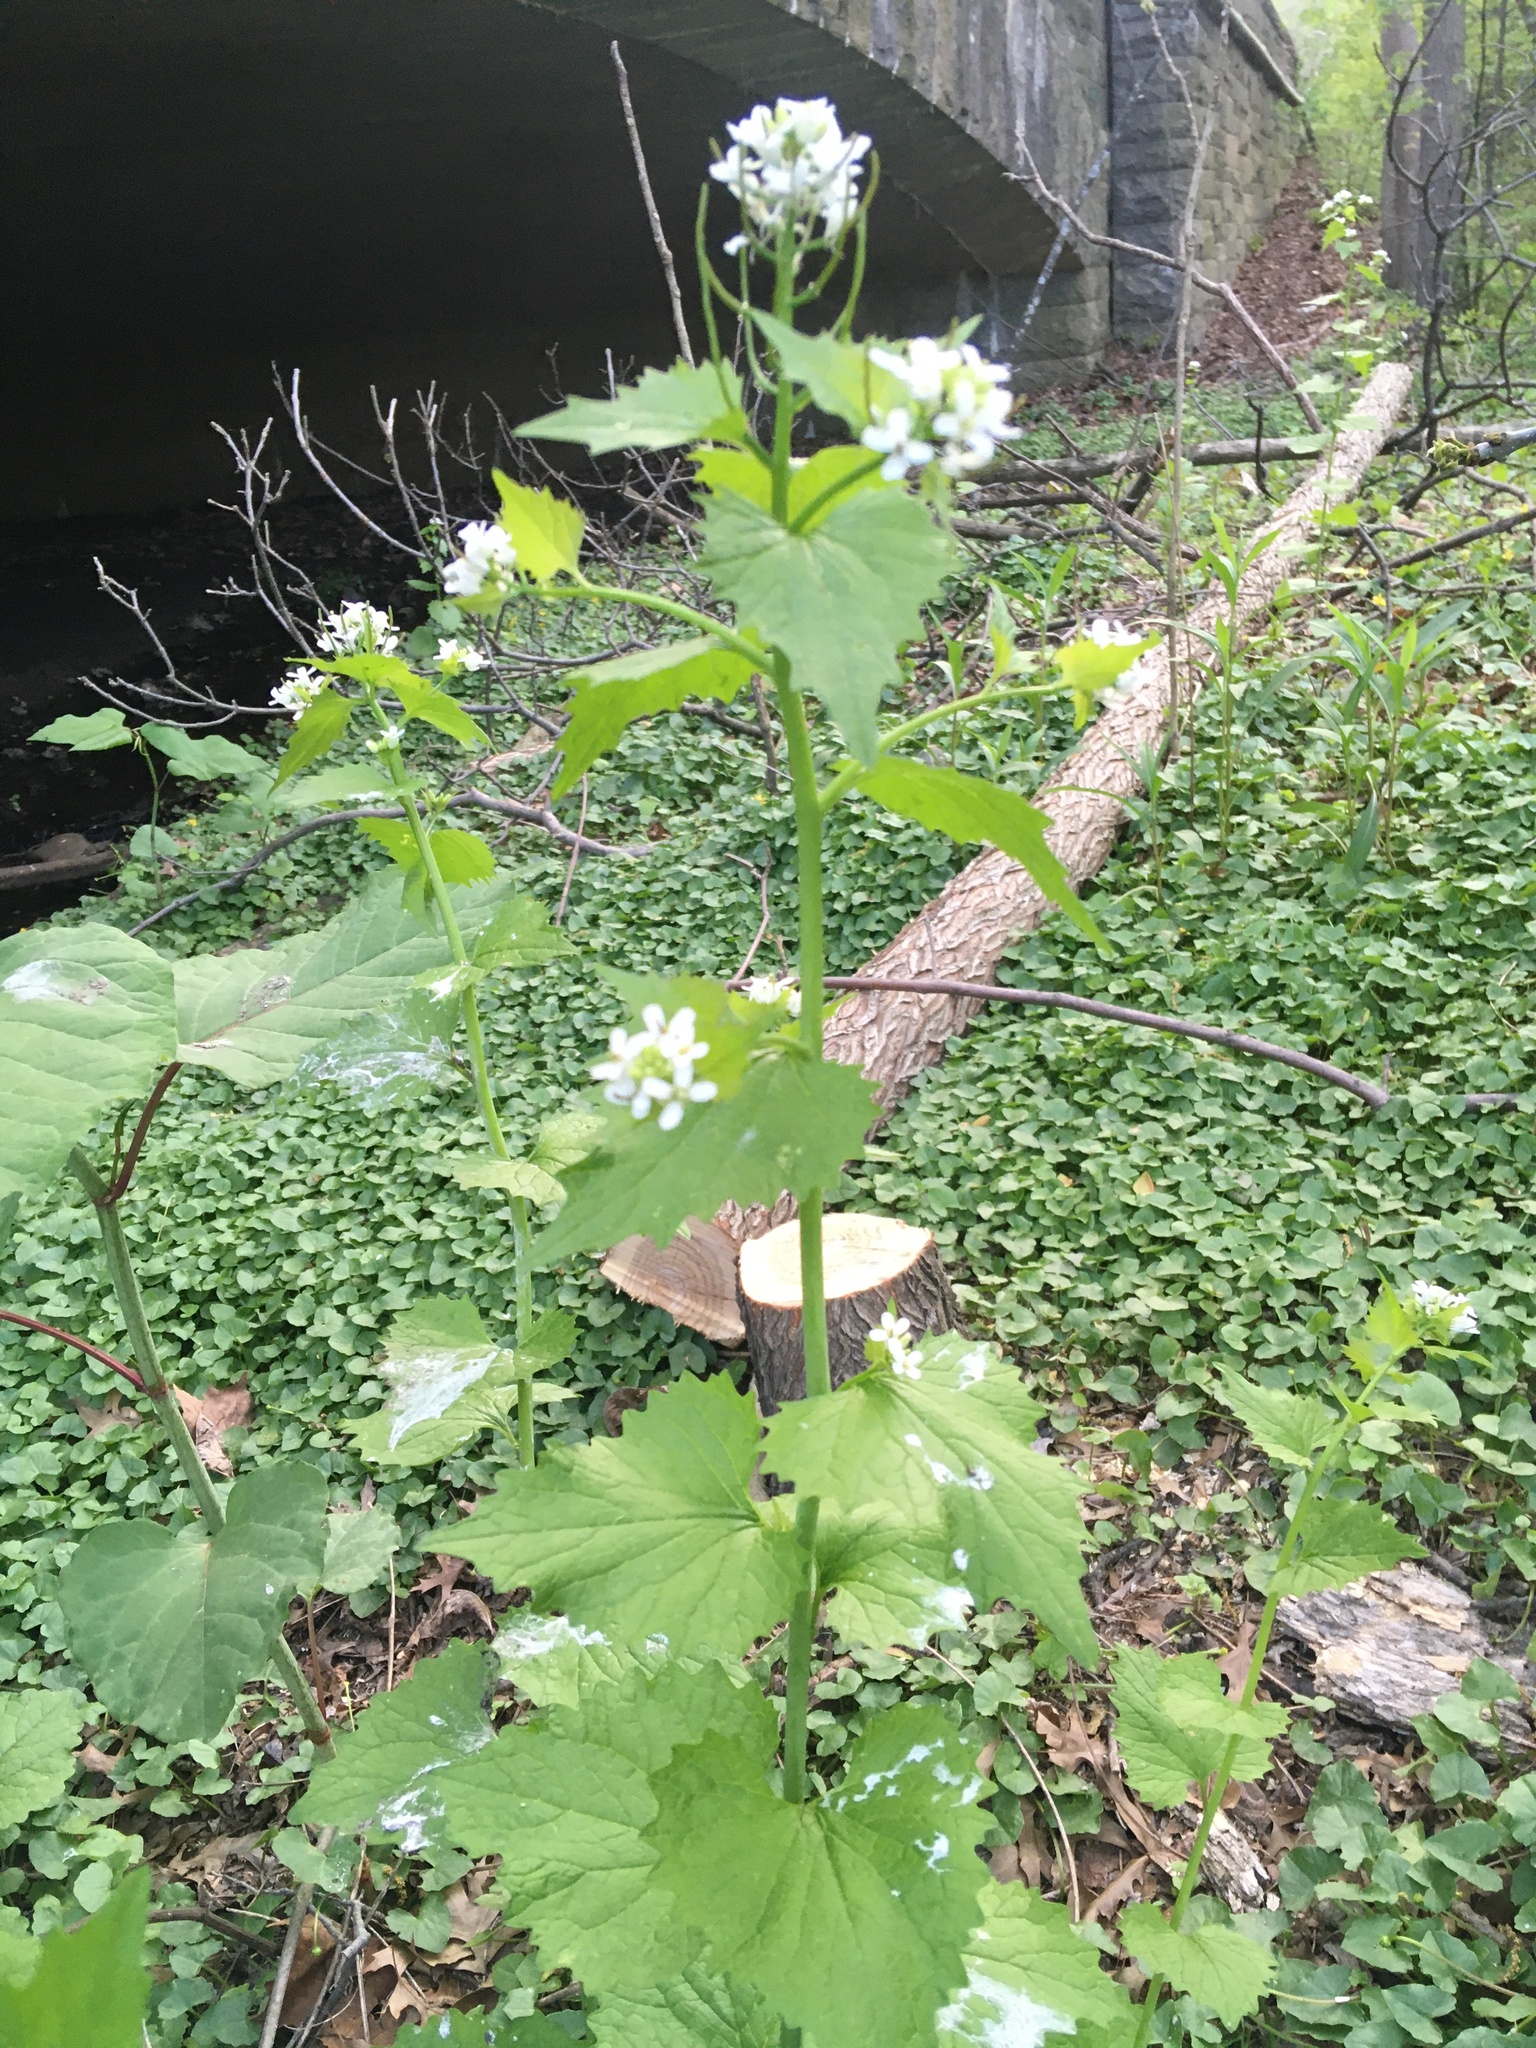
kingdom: Plantae
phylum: Tracheophyta
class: Magnoliopsida
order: Brassicales
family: Brassicaceae
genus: Alliaria
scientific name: Alliaria petiolata
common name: Garlic mustard
